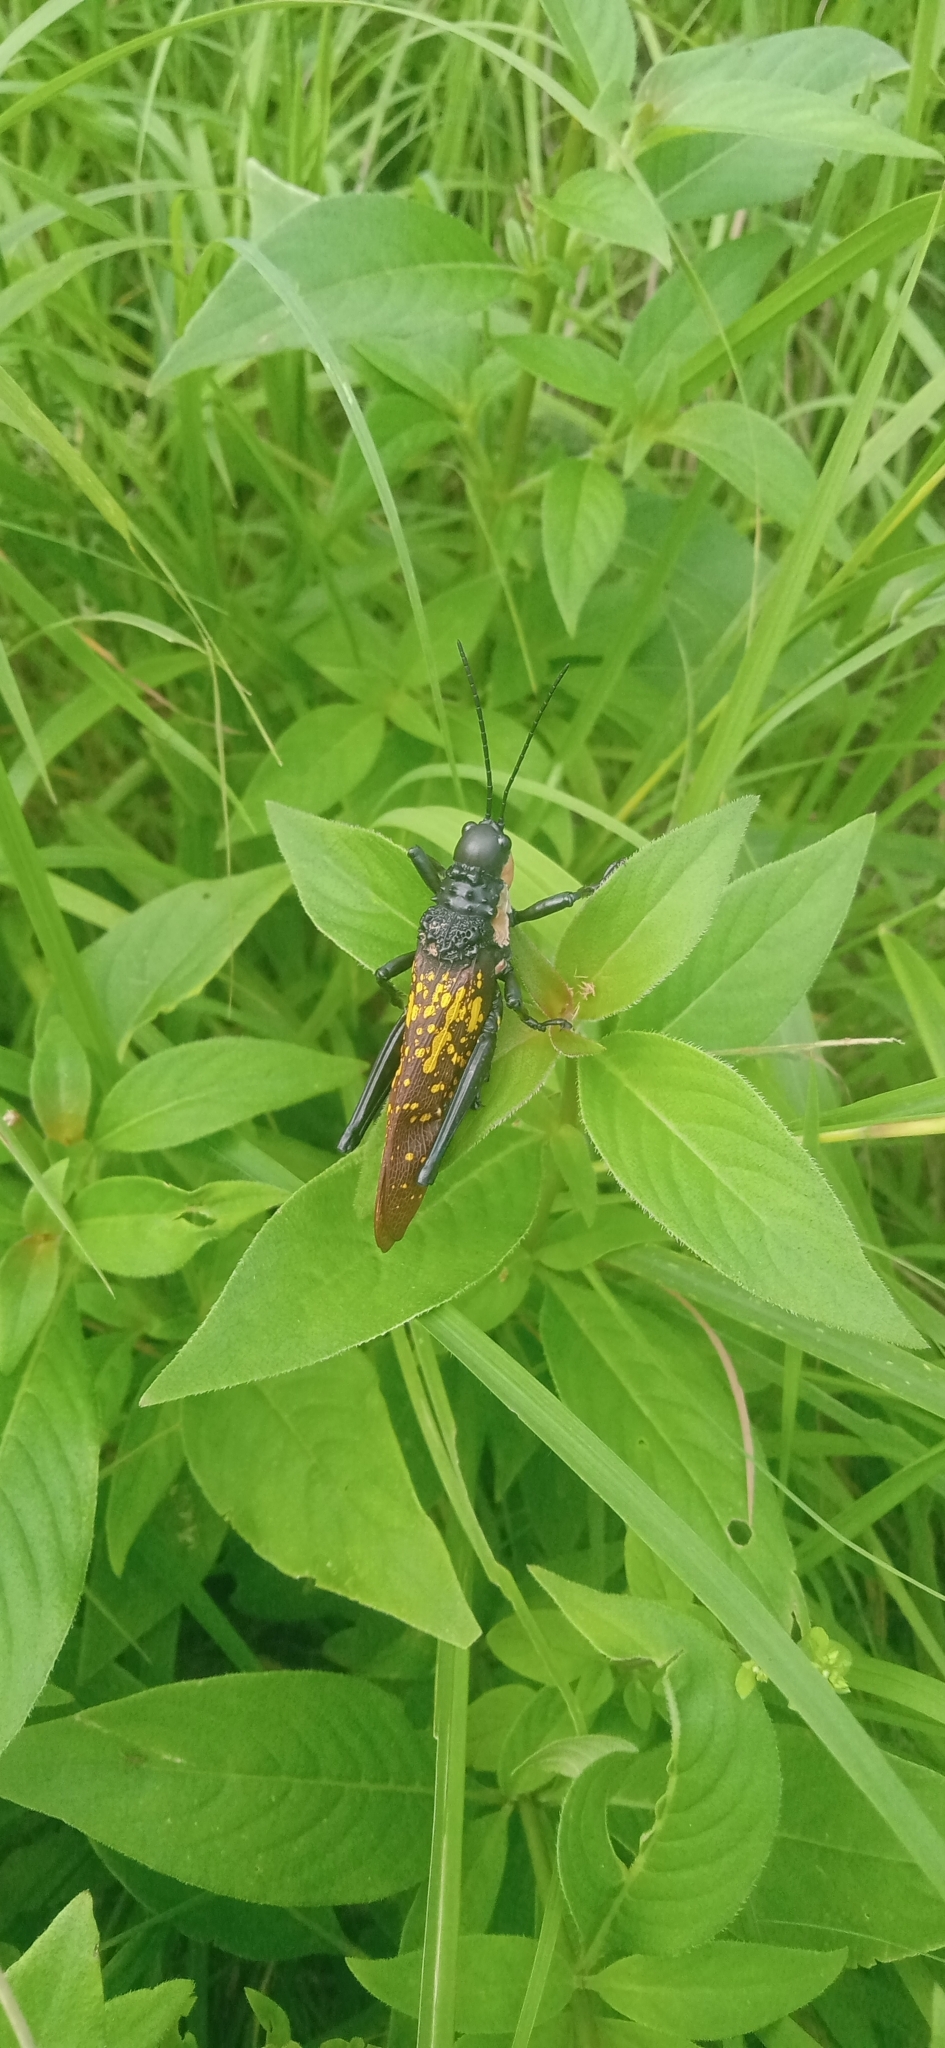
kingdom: Animalia
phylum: Arthropoda
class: Insecta
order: Orthoptera
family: Pyrgomorphidae
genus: Aularches
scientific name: Aularches miliaris
